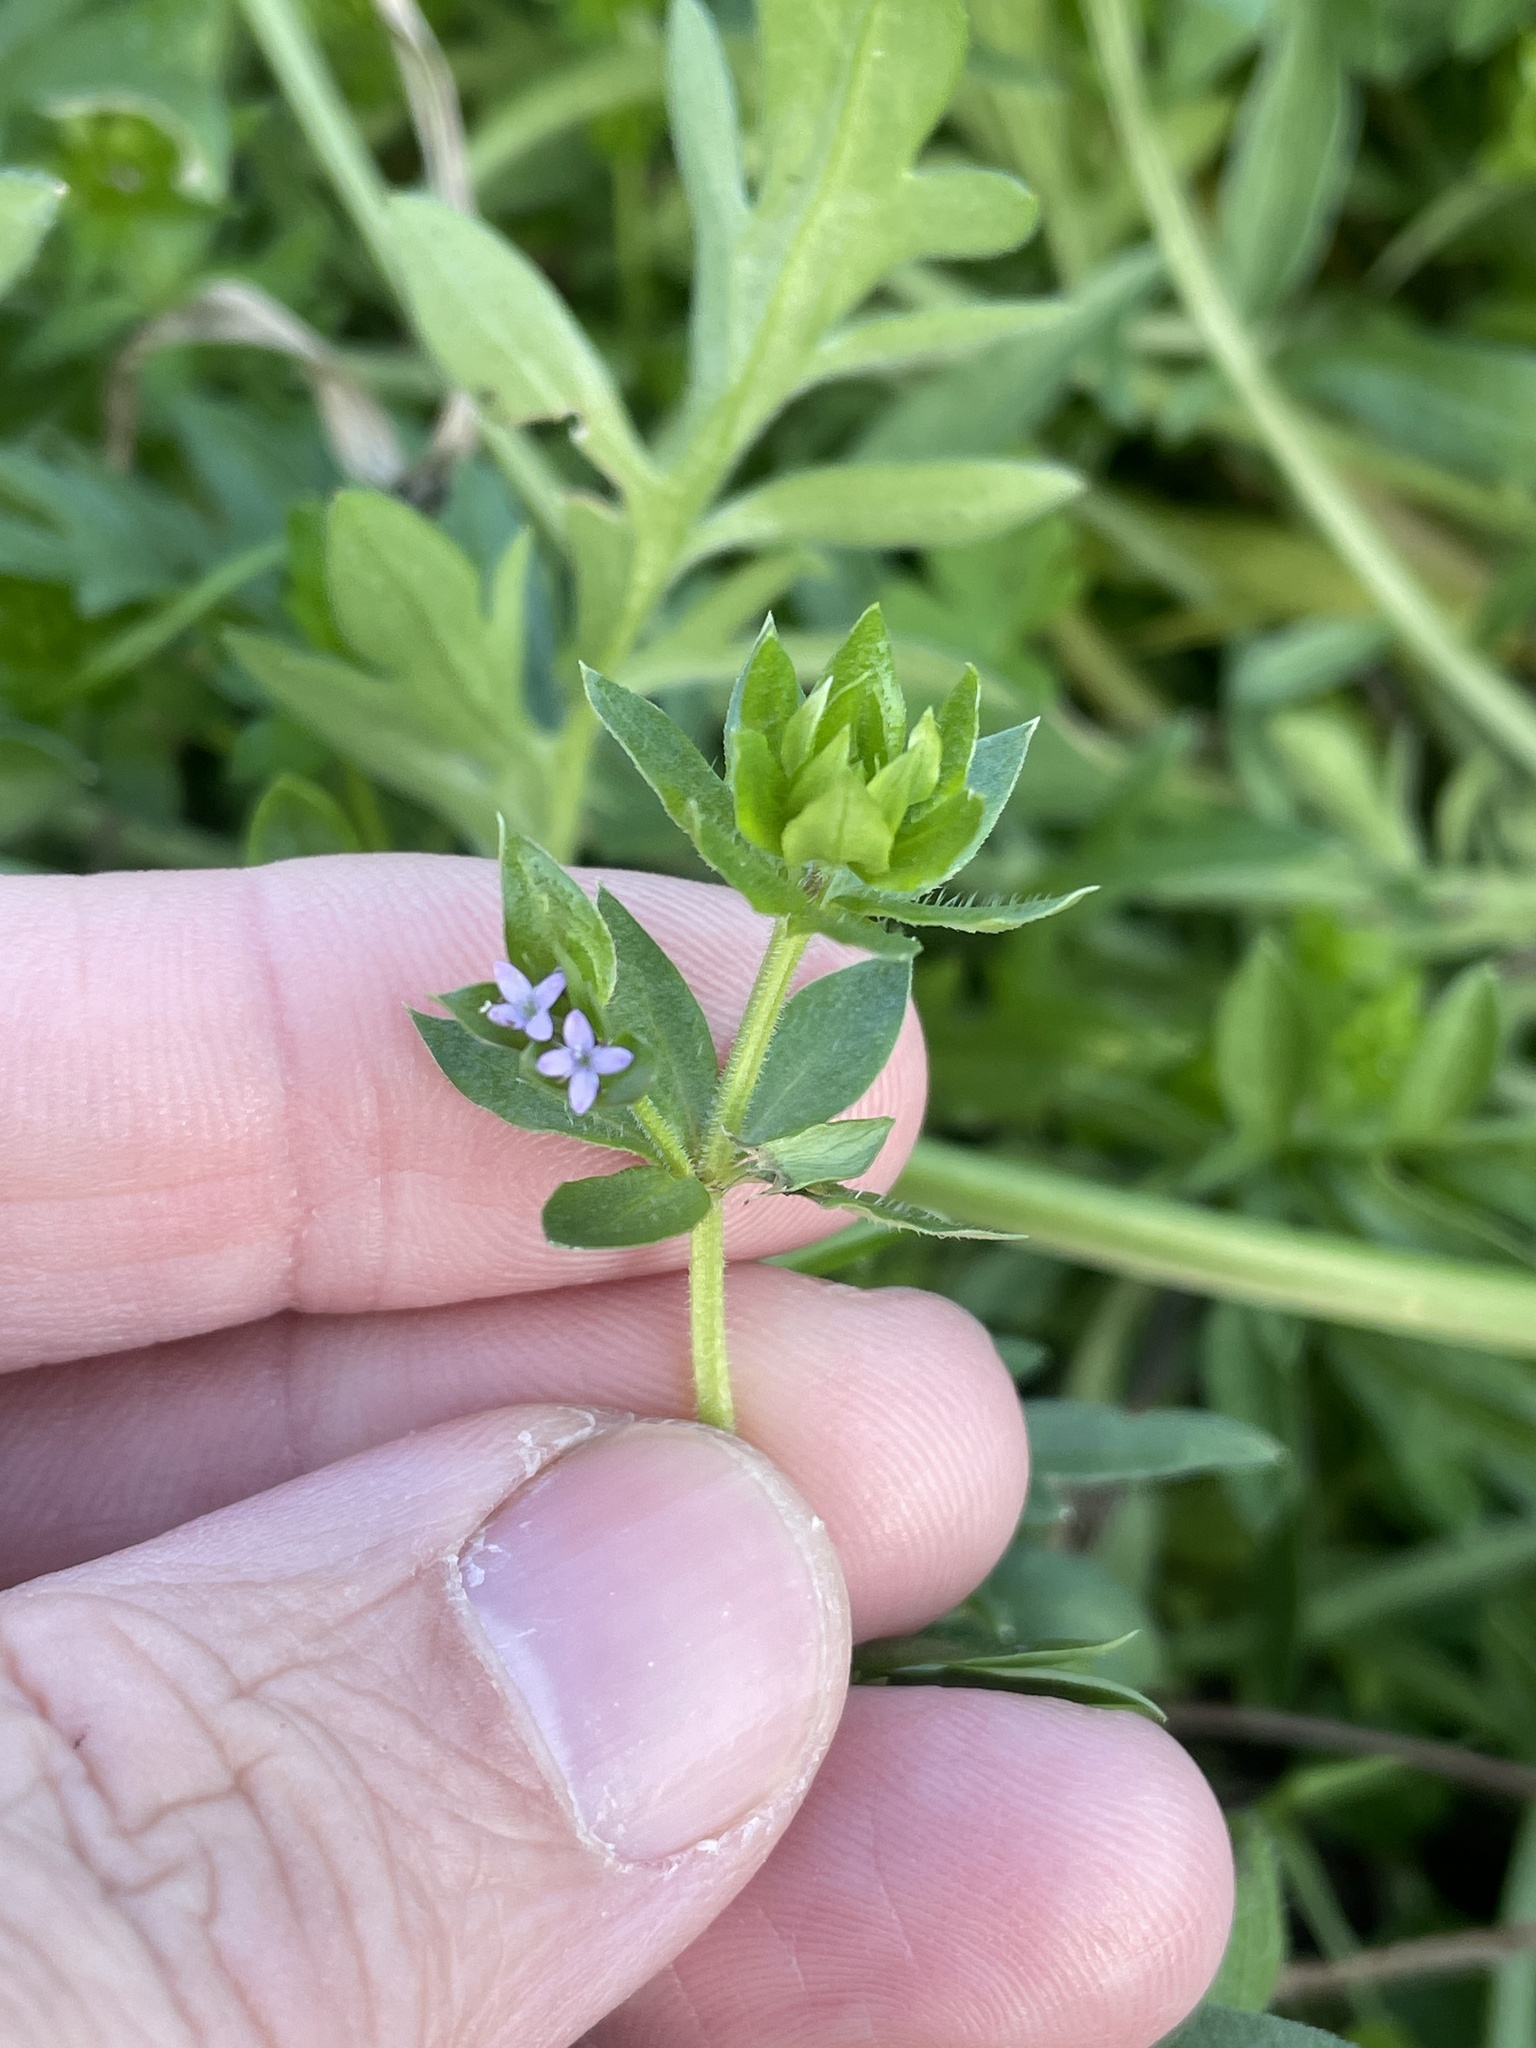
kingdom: Plantae
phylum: Tracheophyta
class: Magnoliopsida
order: Gentianales
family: Rubiaceae
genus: Sherardia
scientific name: Sherardia arvensis
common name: Field madder
